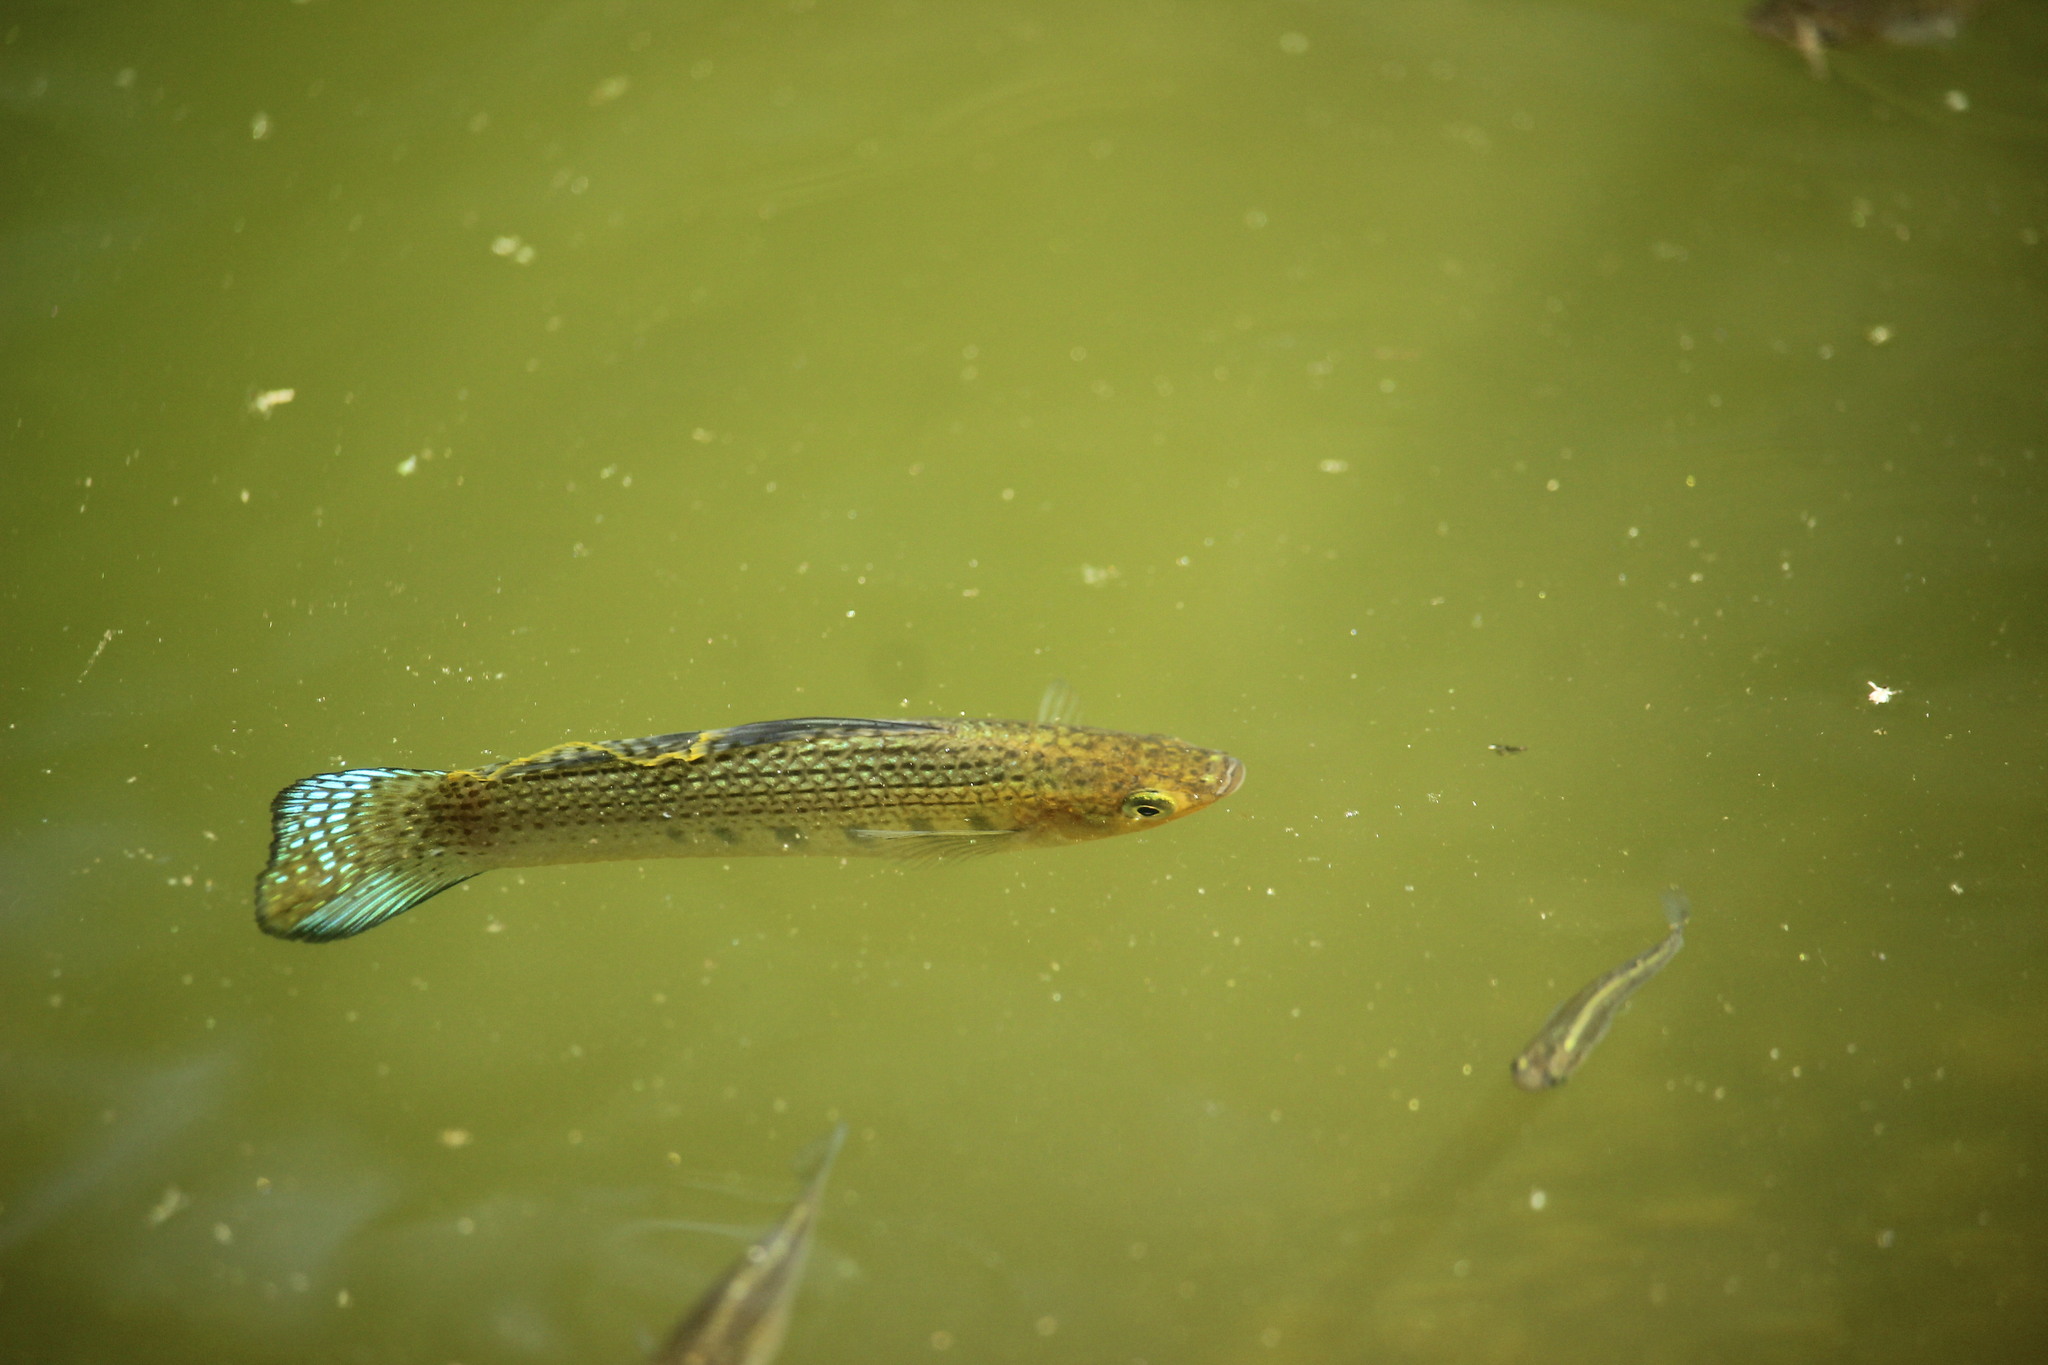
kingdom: Animalia
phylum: Chordata
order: Cyprinodontiformes
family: Poeciliidae
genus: Poecilia
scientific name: Poecilia latipinna
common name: Sailfin molly
